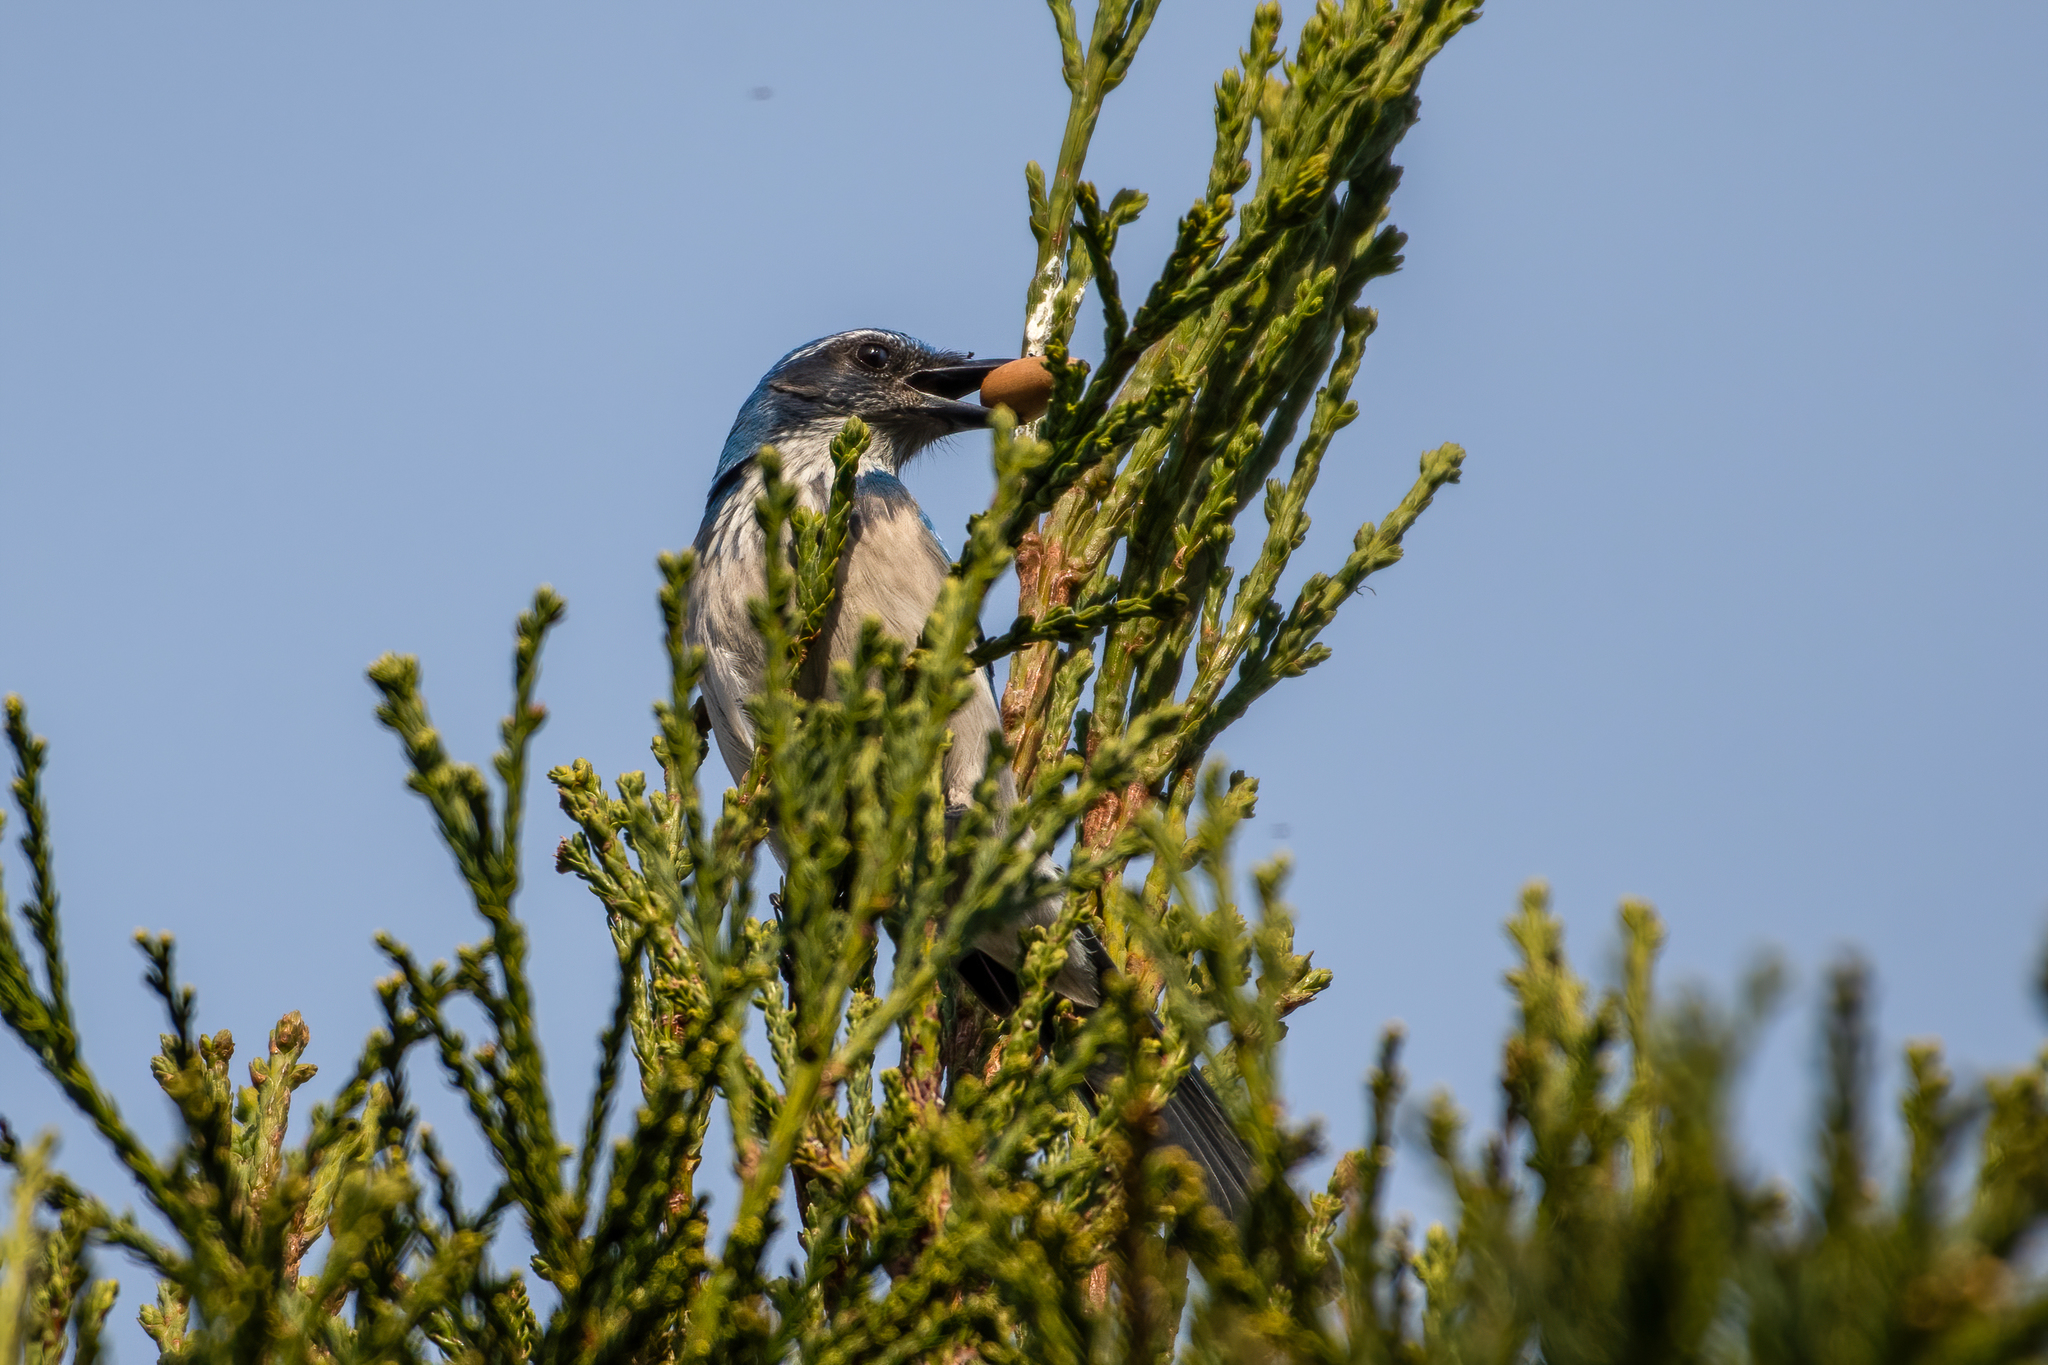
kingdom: Animalia
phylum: Chordata
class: Aves
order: Passeriformes
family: Corvidae
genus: Aphelocoma
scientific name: Aphelocoma californica
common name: California scrub-jay
